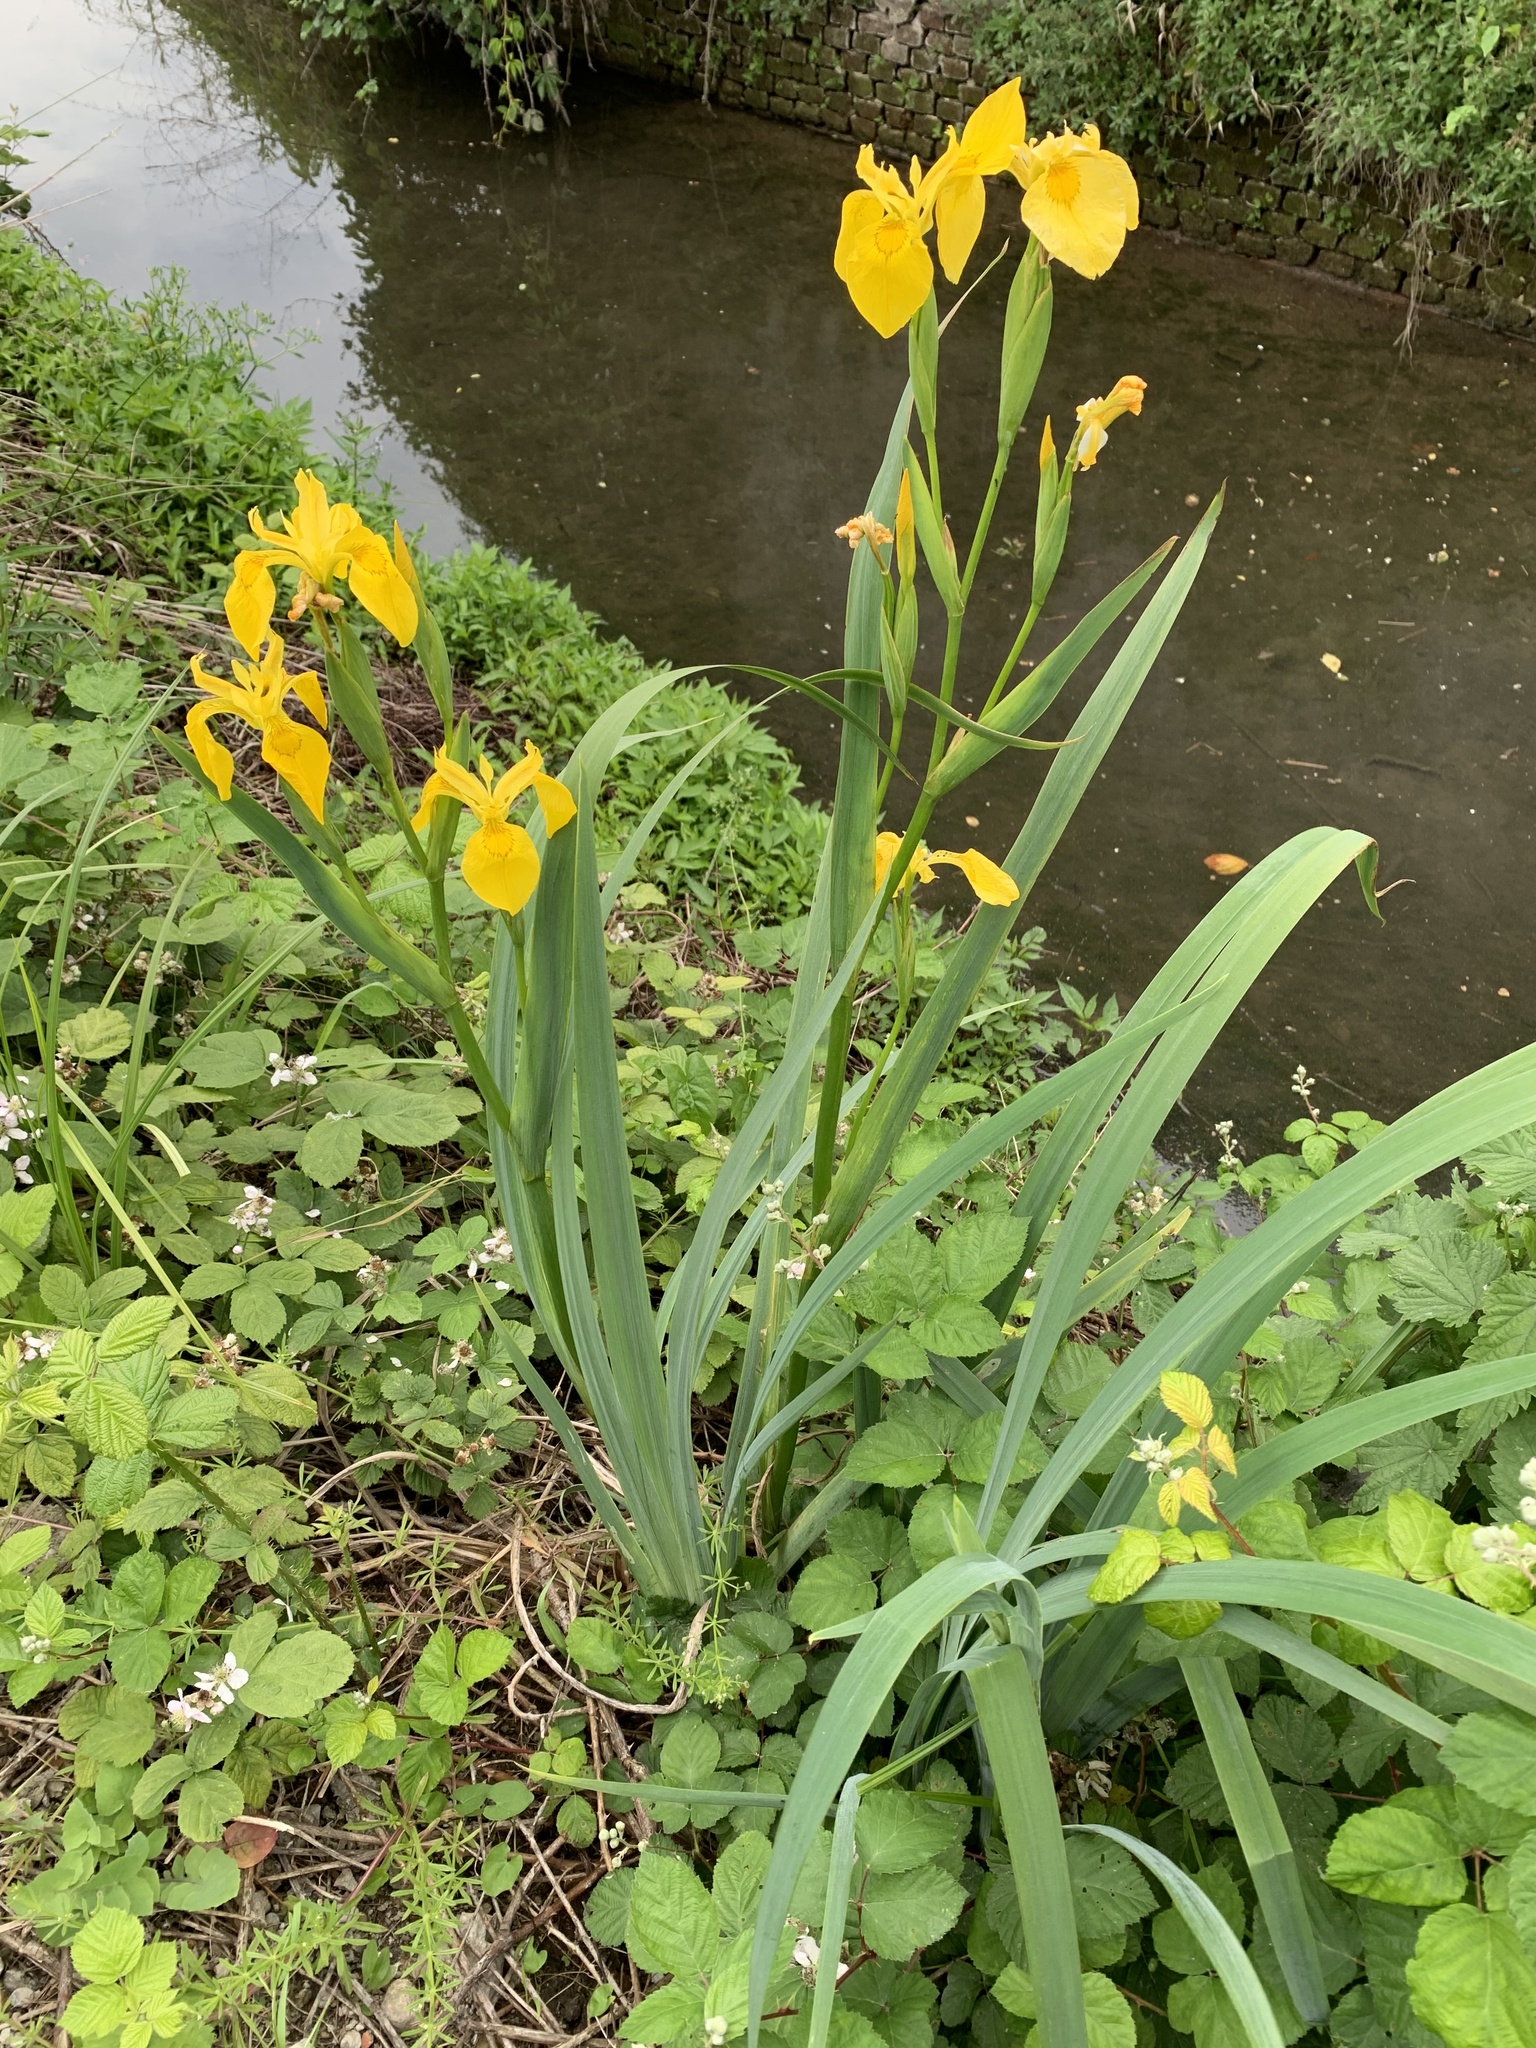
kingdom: Plantae
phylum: Tracheophyta
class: Liliopsida
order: Asparagales
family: Iridaceae
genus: Iris
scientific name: Iris pseudacorus
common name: Yellow flag
